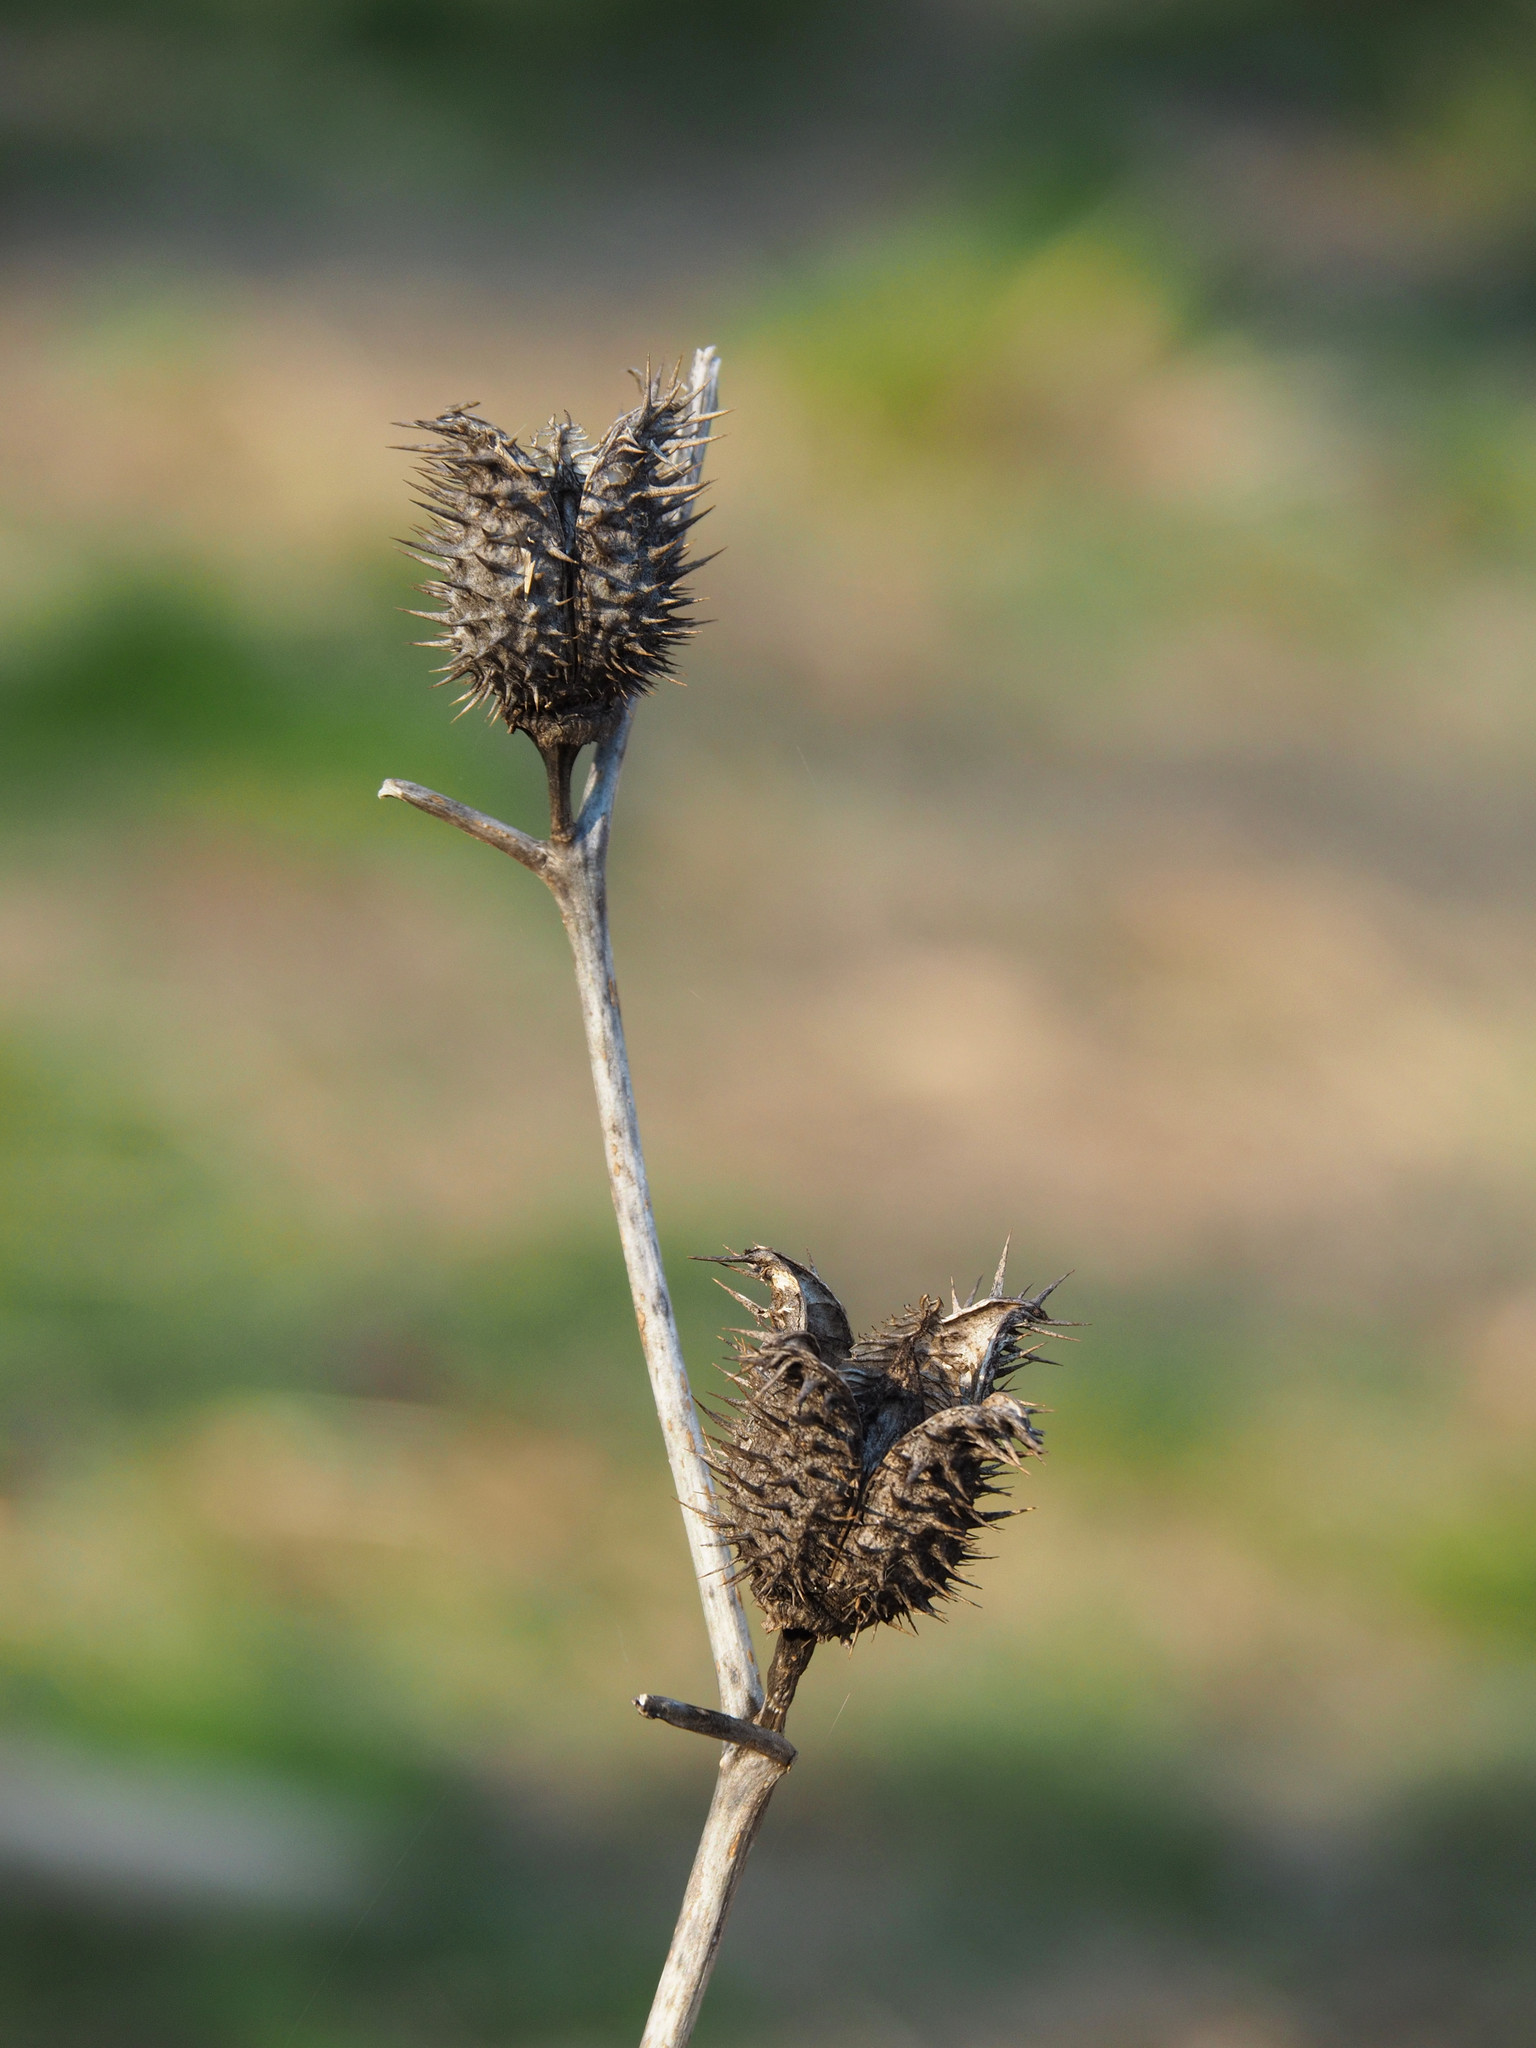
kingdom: Plantae
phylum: Tracheophyta
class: Magnoliopsida
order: Solanales
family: Solanaceae
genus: Datura
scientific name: Datura stramonium
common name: Thorn-apple
